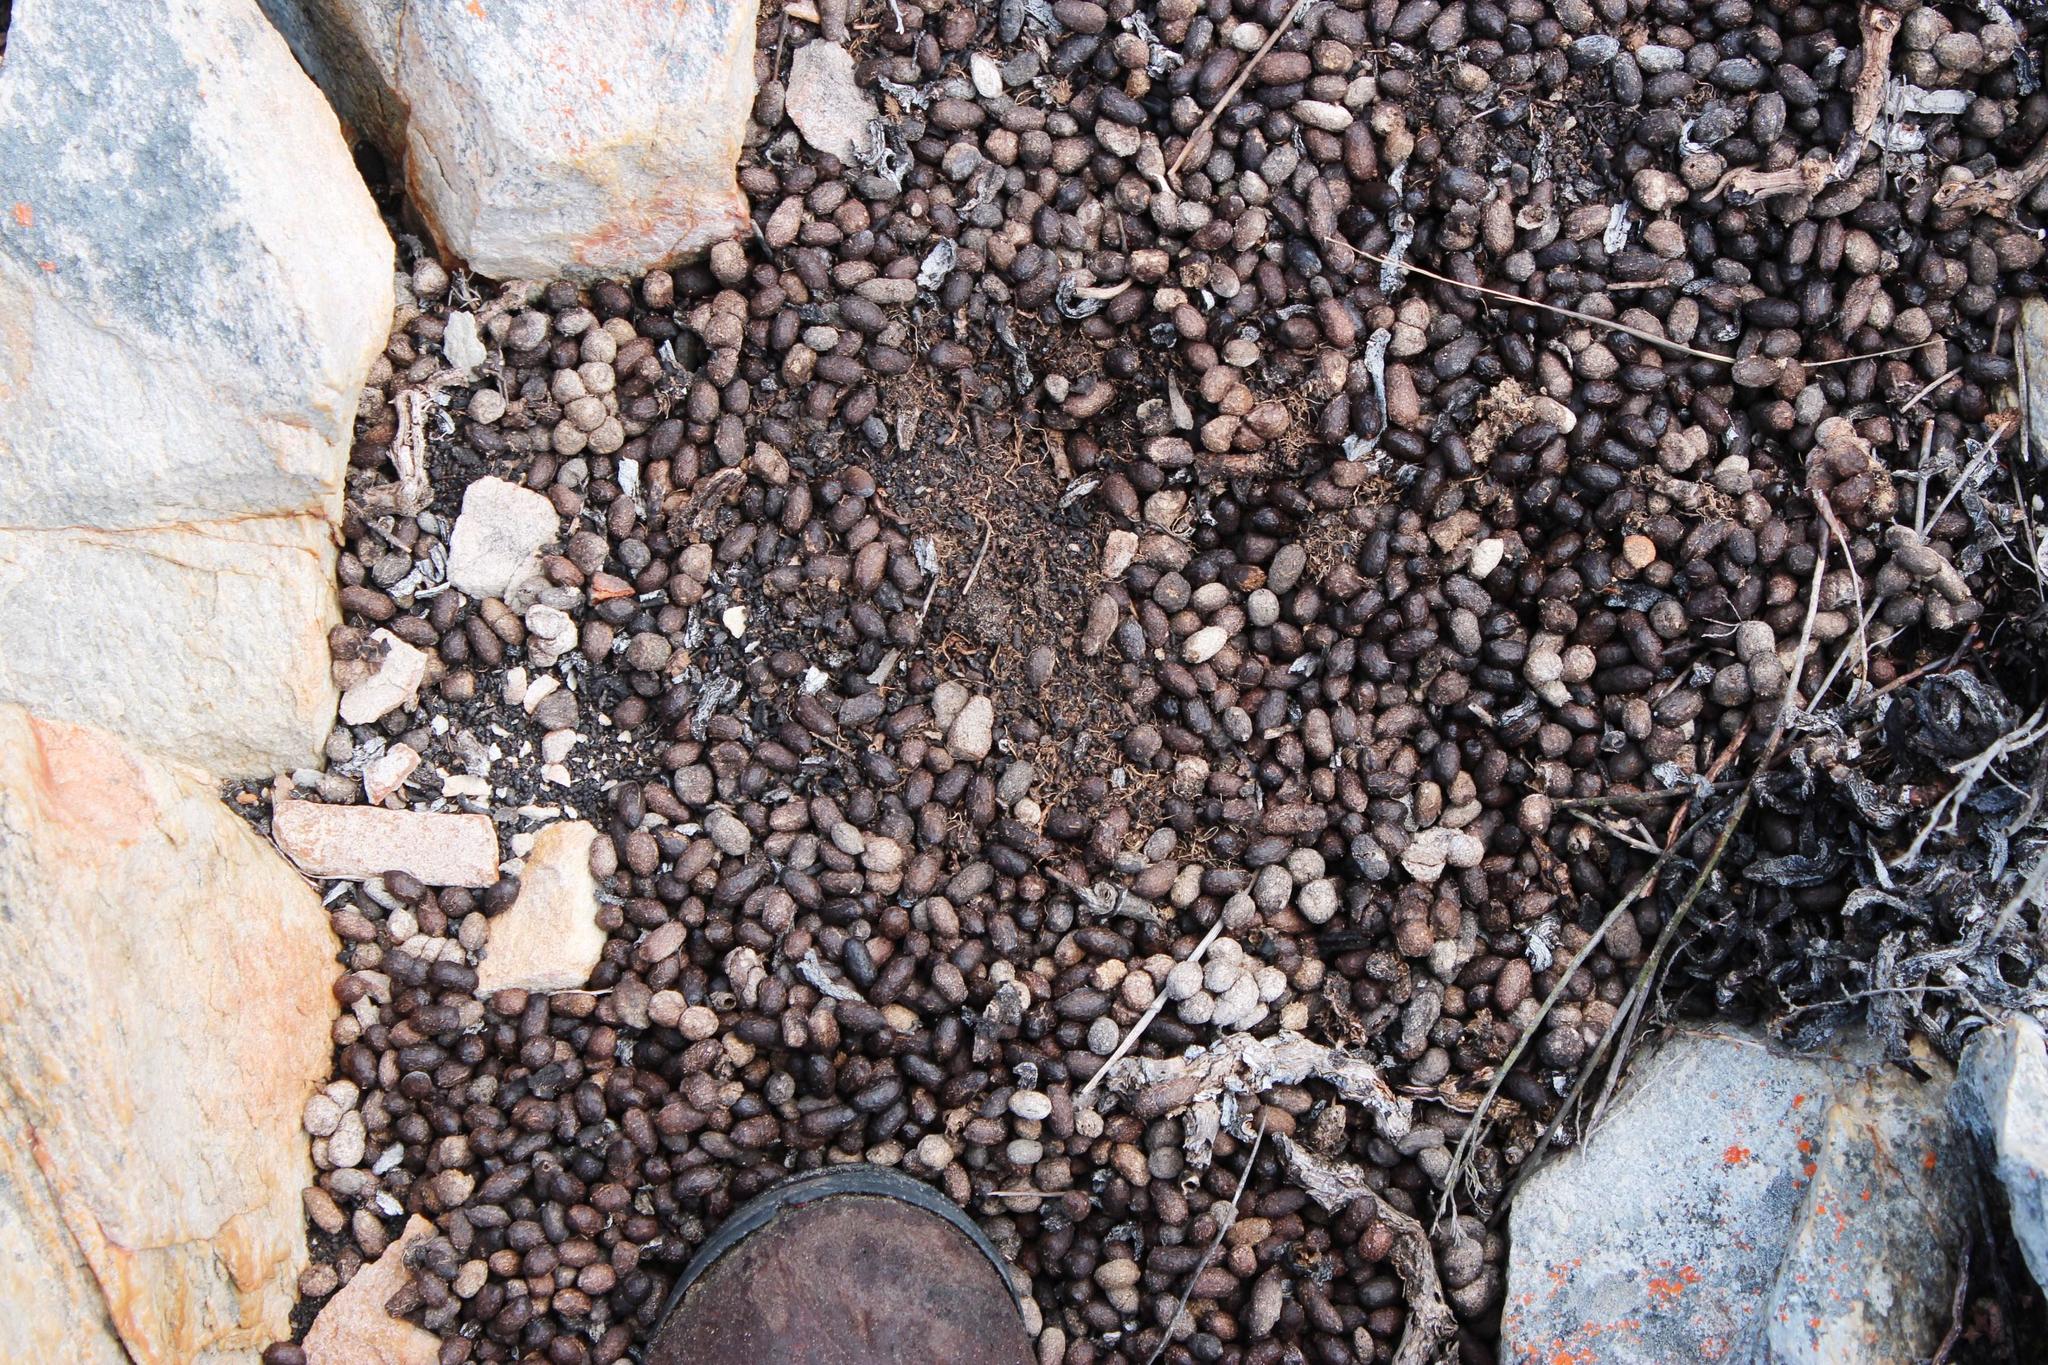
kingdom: Animalia
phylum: Chordata
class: Mammalia
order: Artiodactyla
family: Bovidae
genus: Oreotragus
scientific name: Oreotragus oreotragus
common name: Klipspringer
